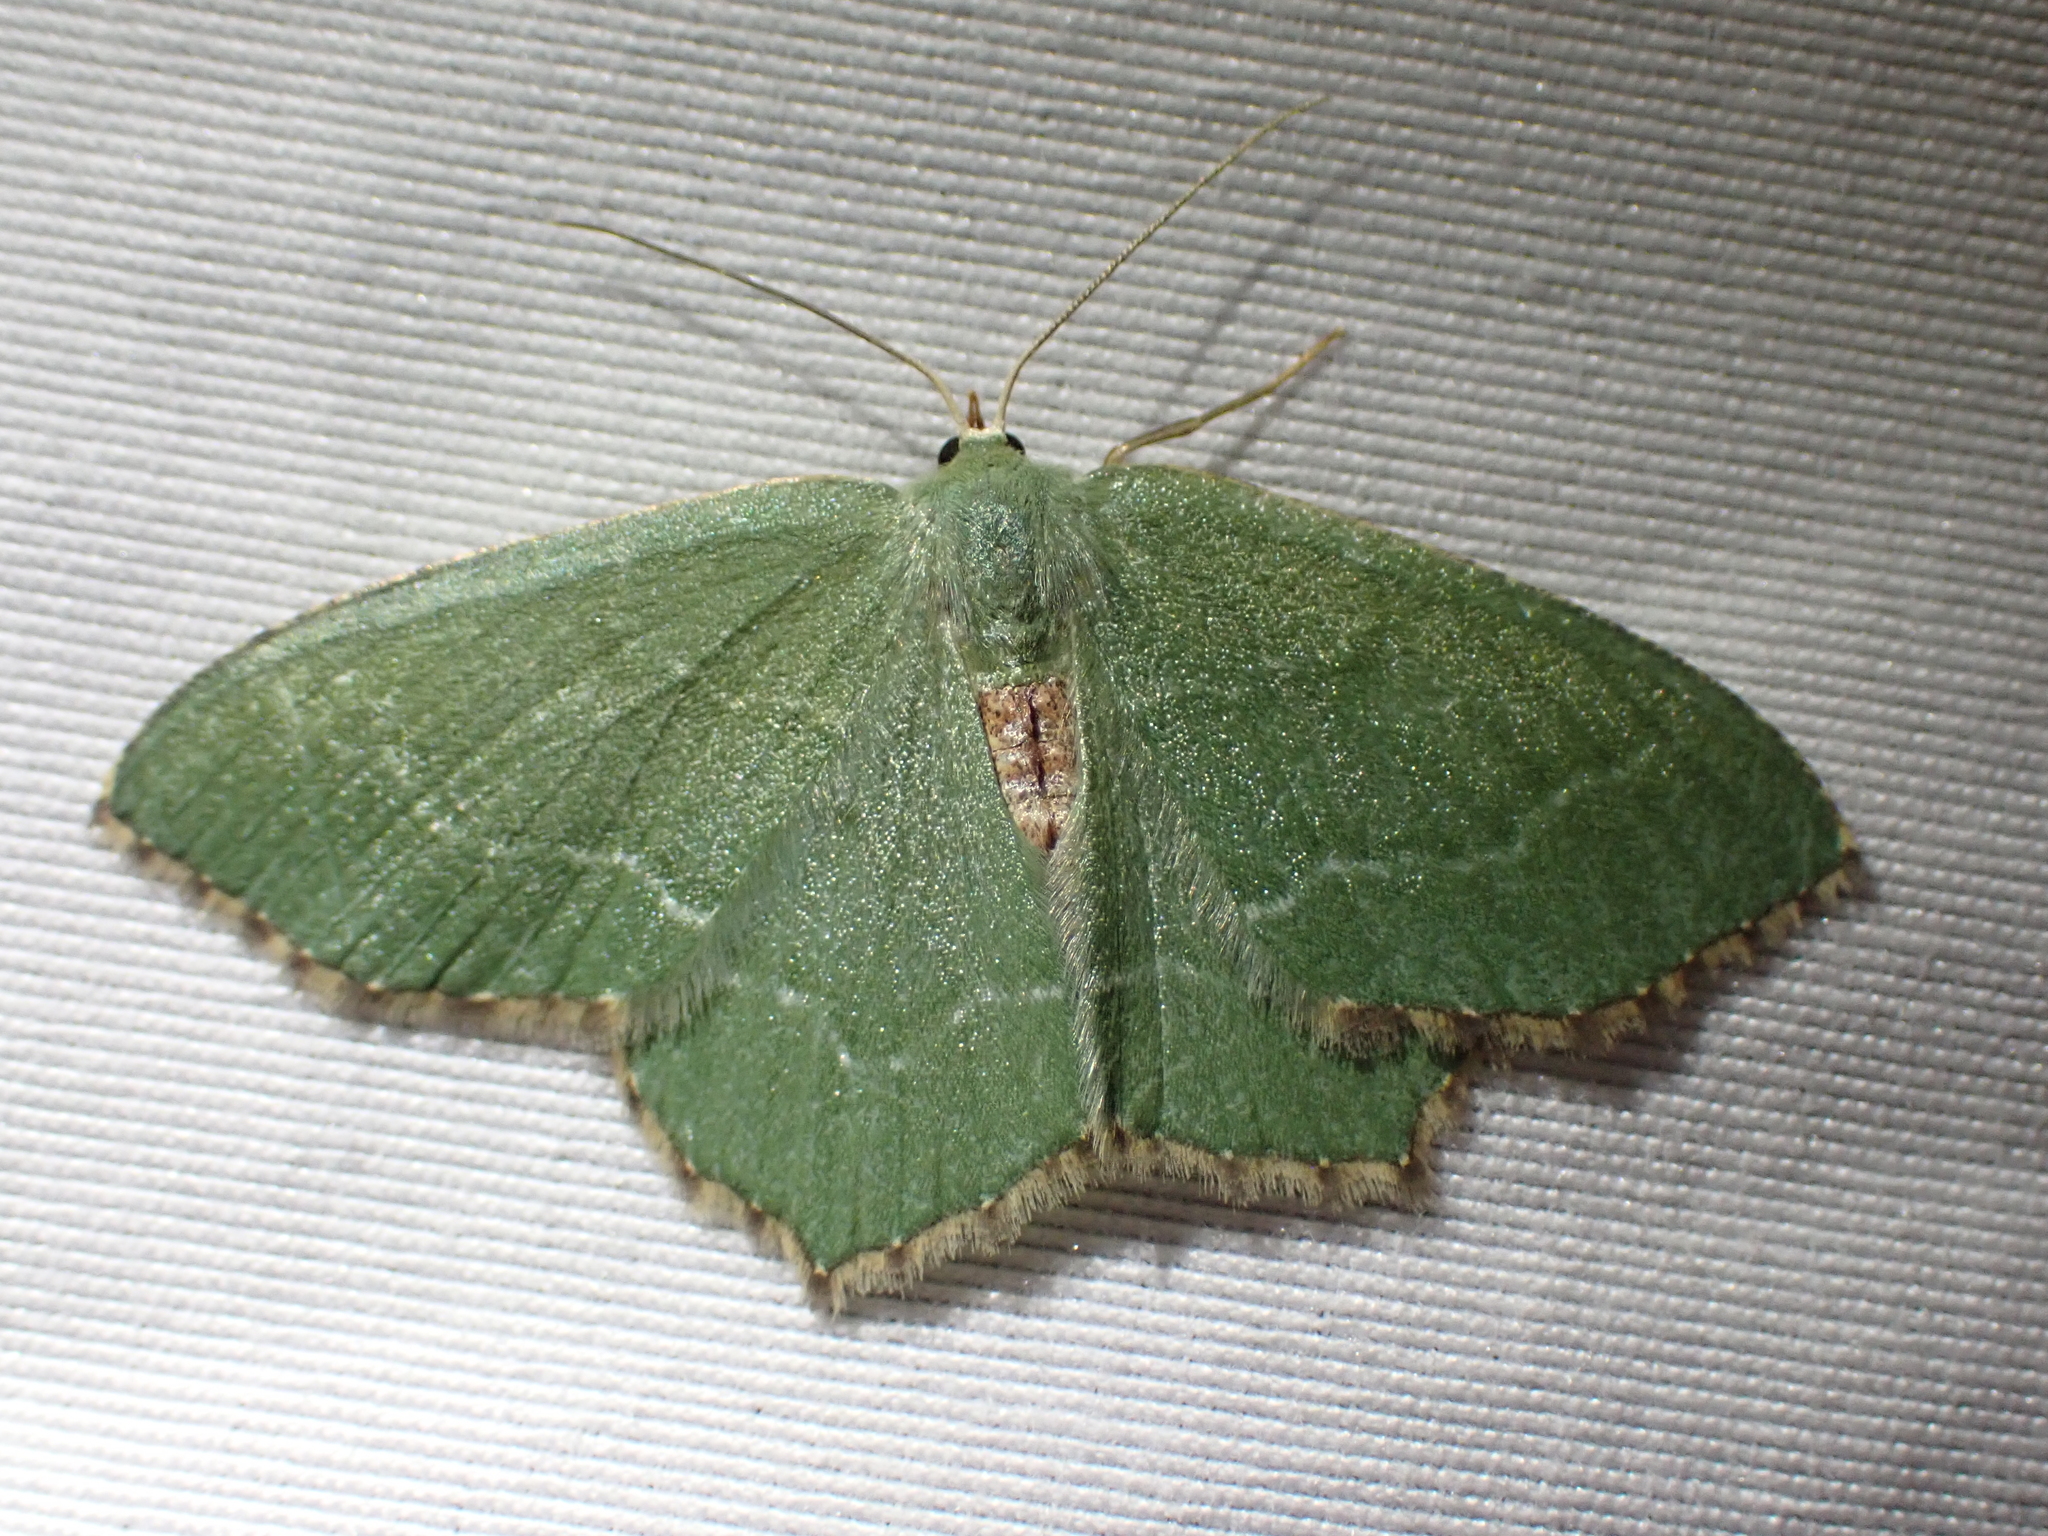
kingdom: Animalia
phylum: Arthropoda
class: Insecta
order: Lepidoptera
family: Geometridae
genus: Hemithea
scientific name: Hemithea aestivaria
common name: Common emerald
